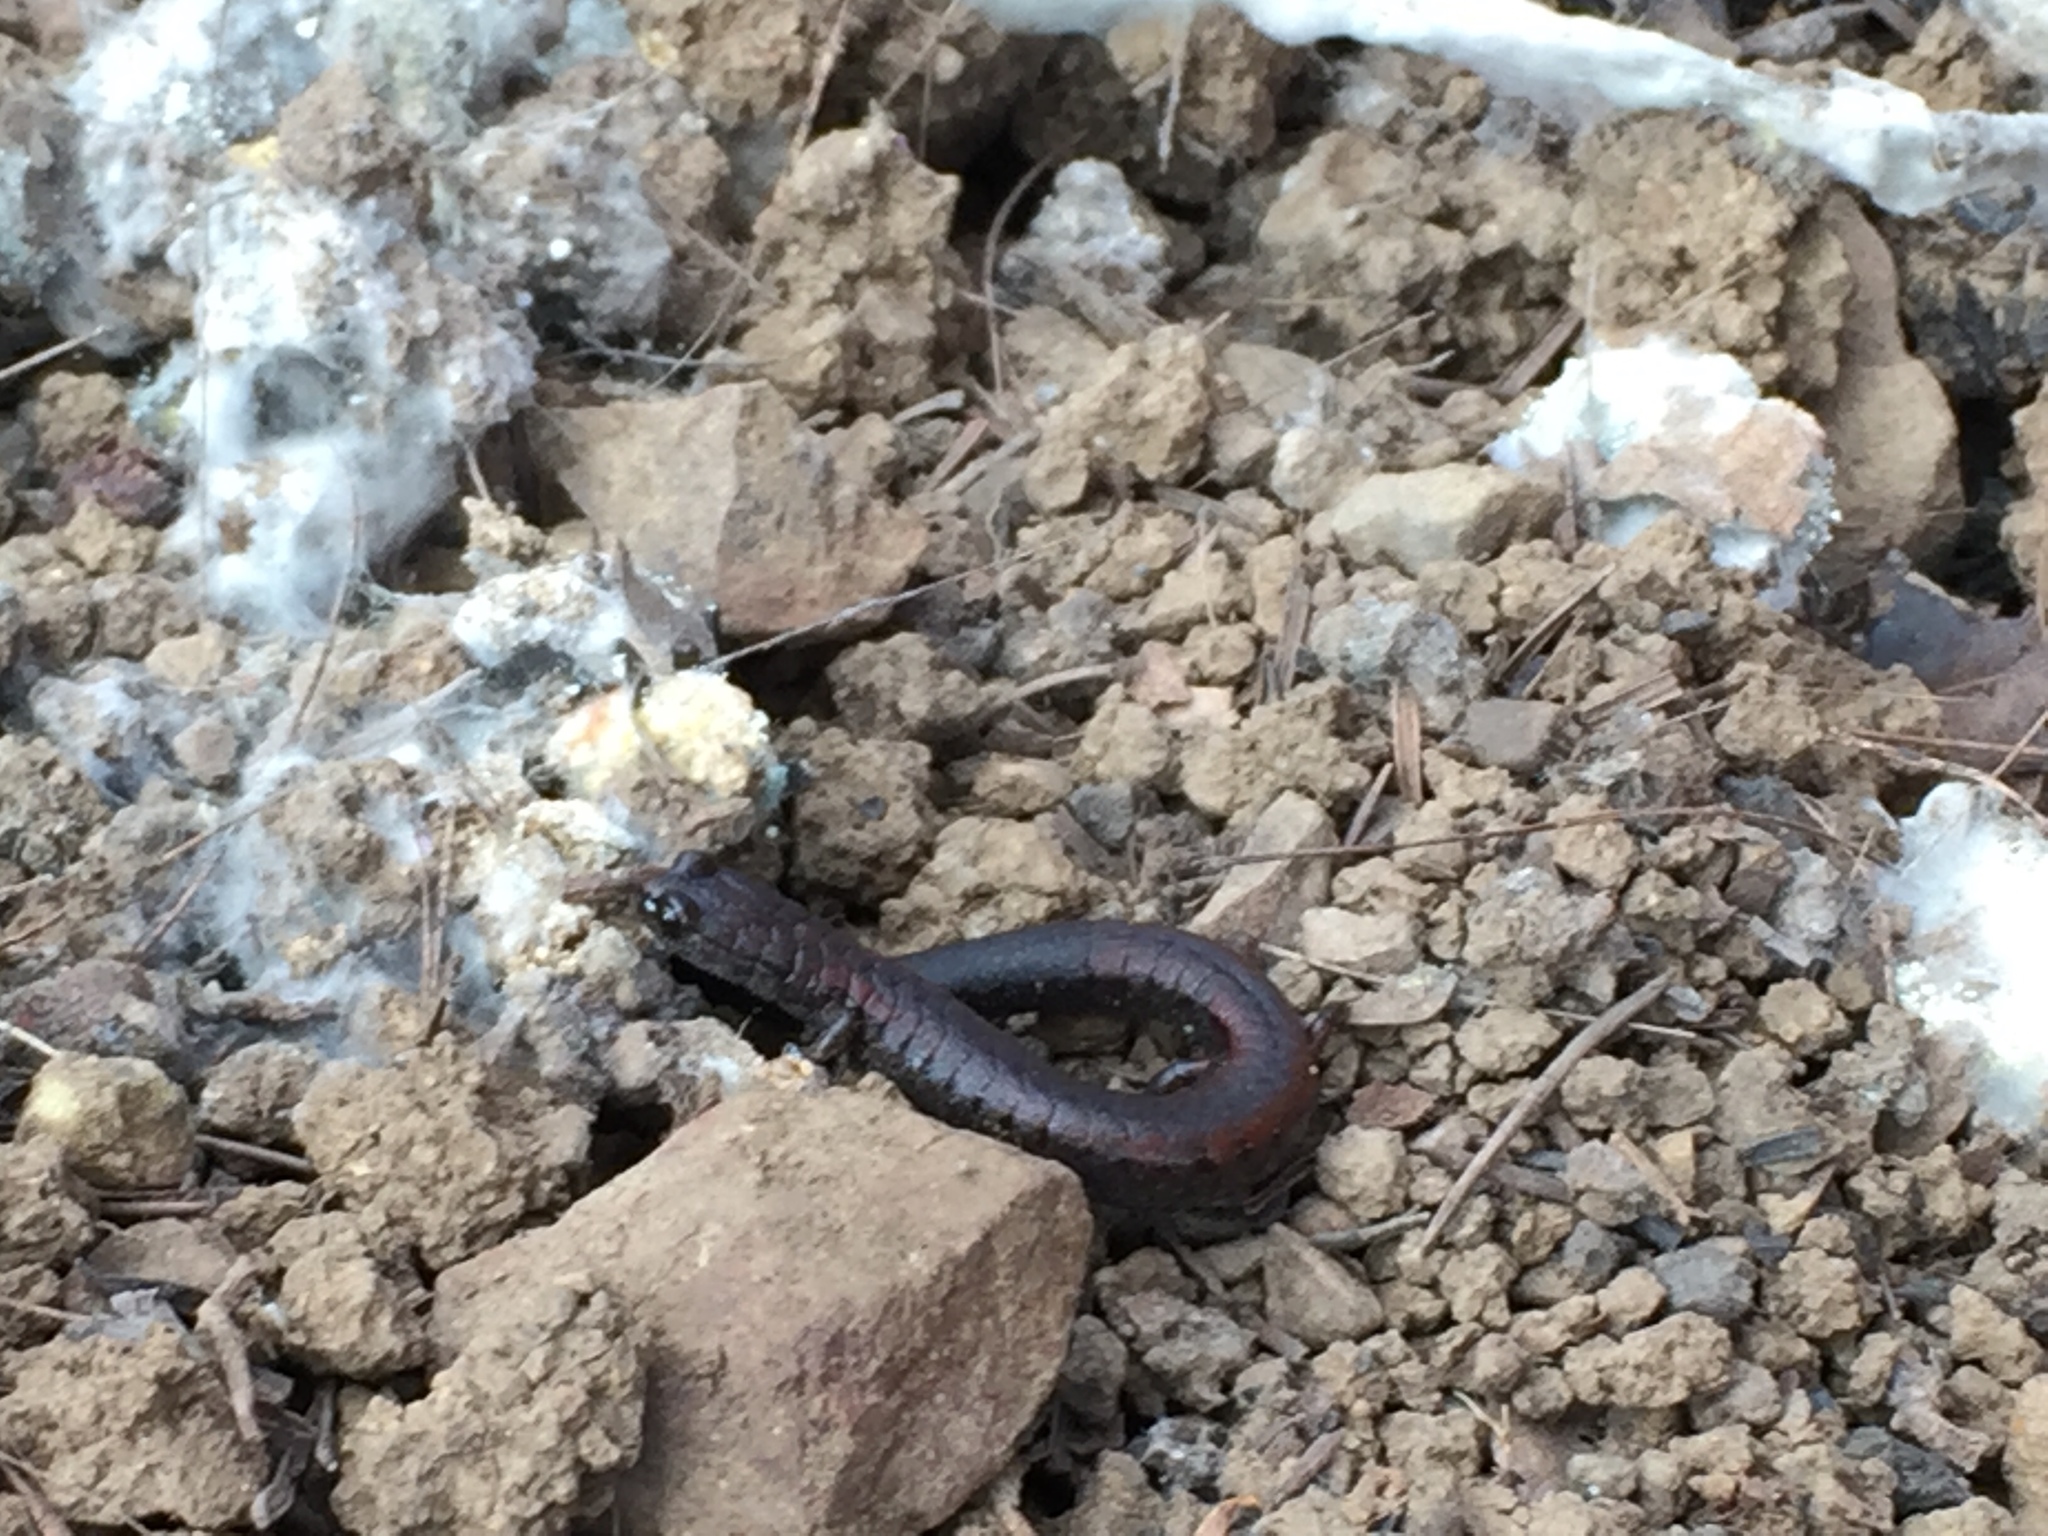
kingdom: Animalia
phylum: Chordata
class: Amphibia
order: Caudata
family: Plethodontidae
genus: Batrachoseps
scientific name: Batrachoseps attenuatus
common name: California slender salamander
